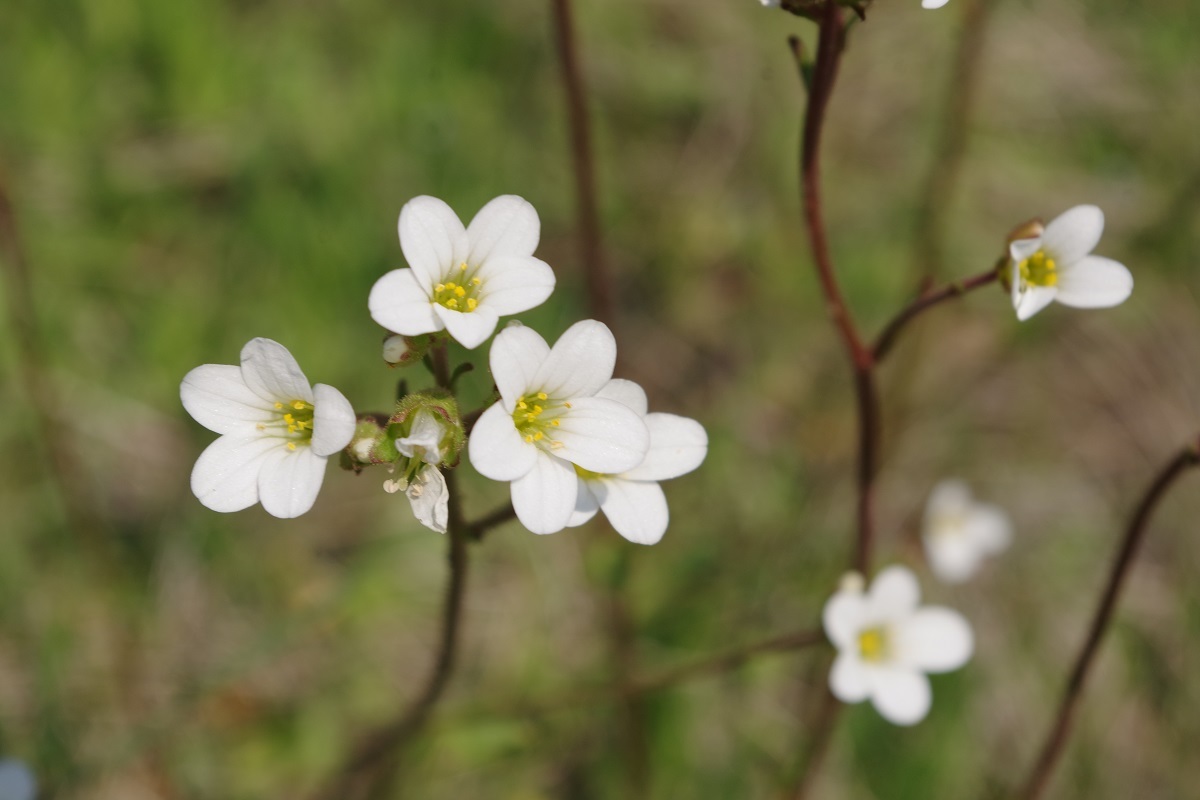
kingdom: Plantae
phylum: Tracheophyta
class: Magnoliopsida
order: Saxifragales
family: Saxifragaceae
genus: Saxifraga
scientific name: Saxifraga granulata
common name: Meadow saxifrage
